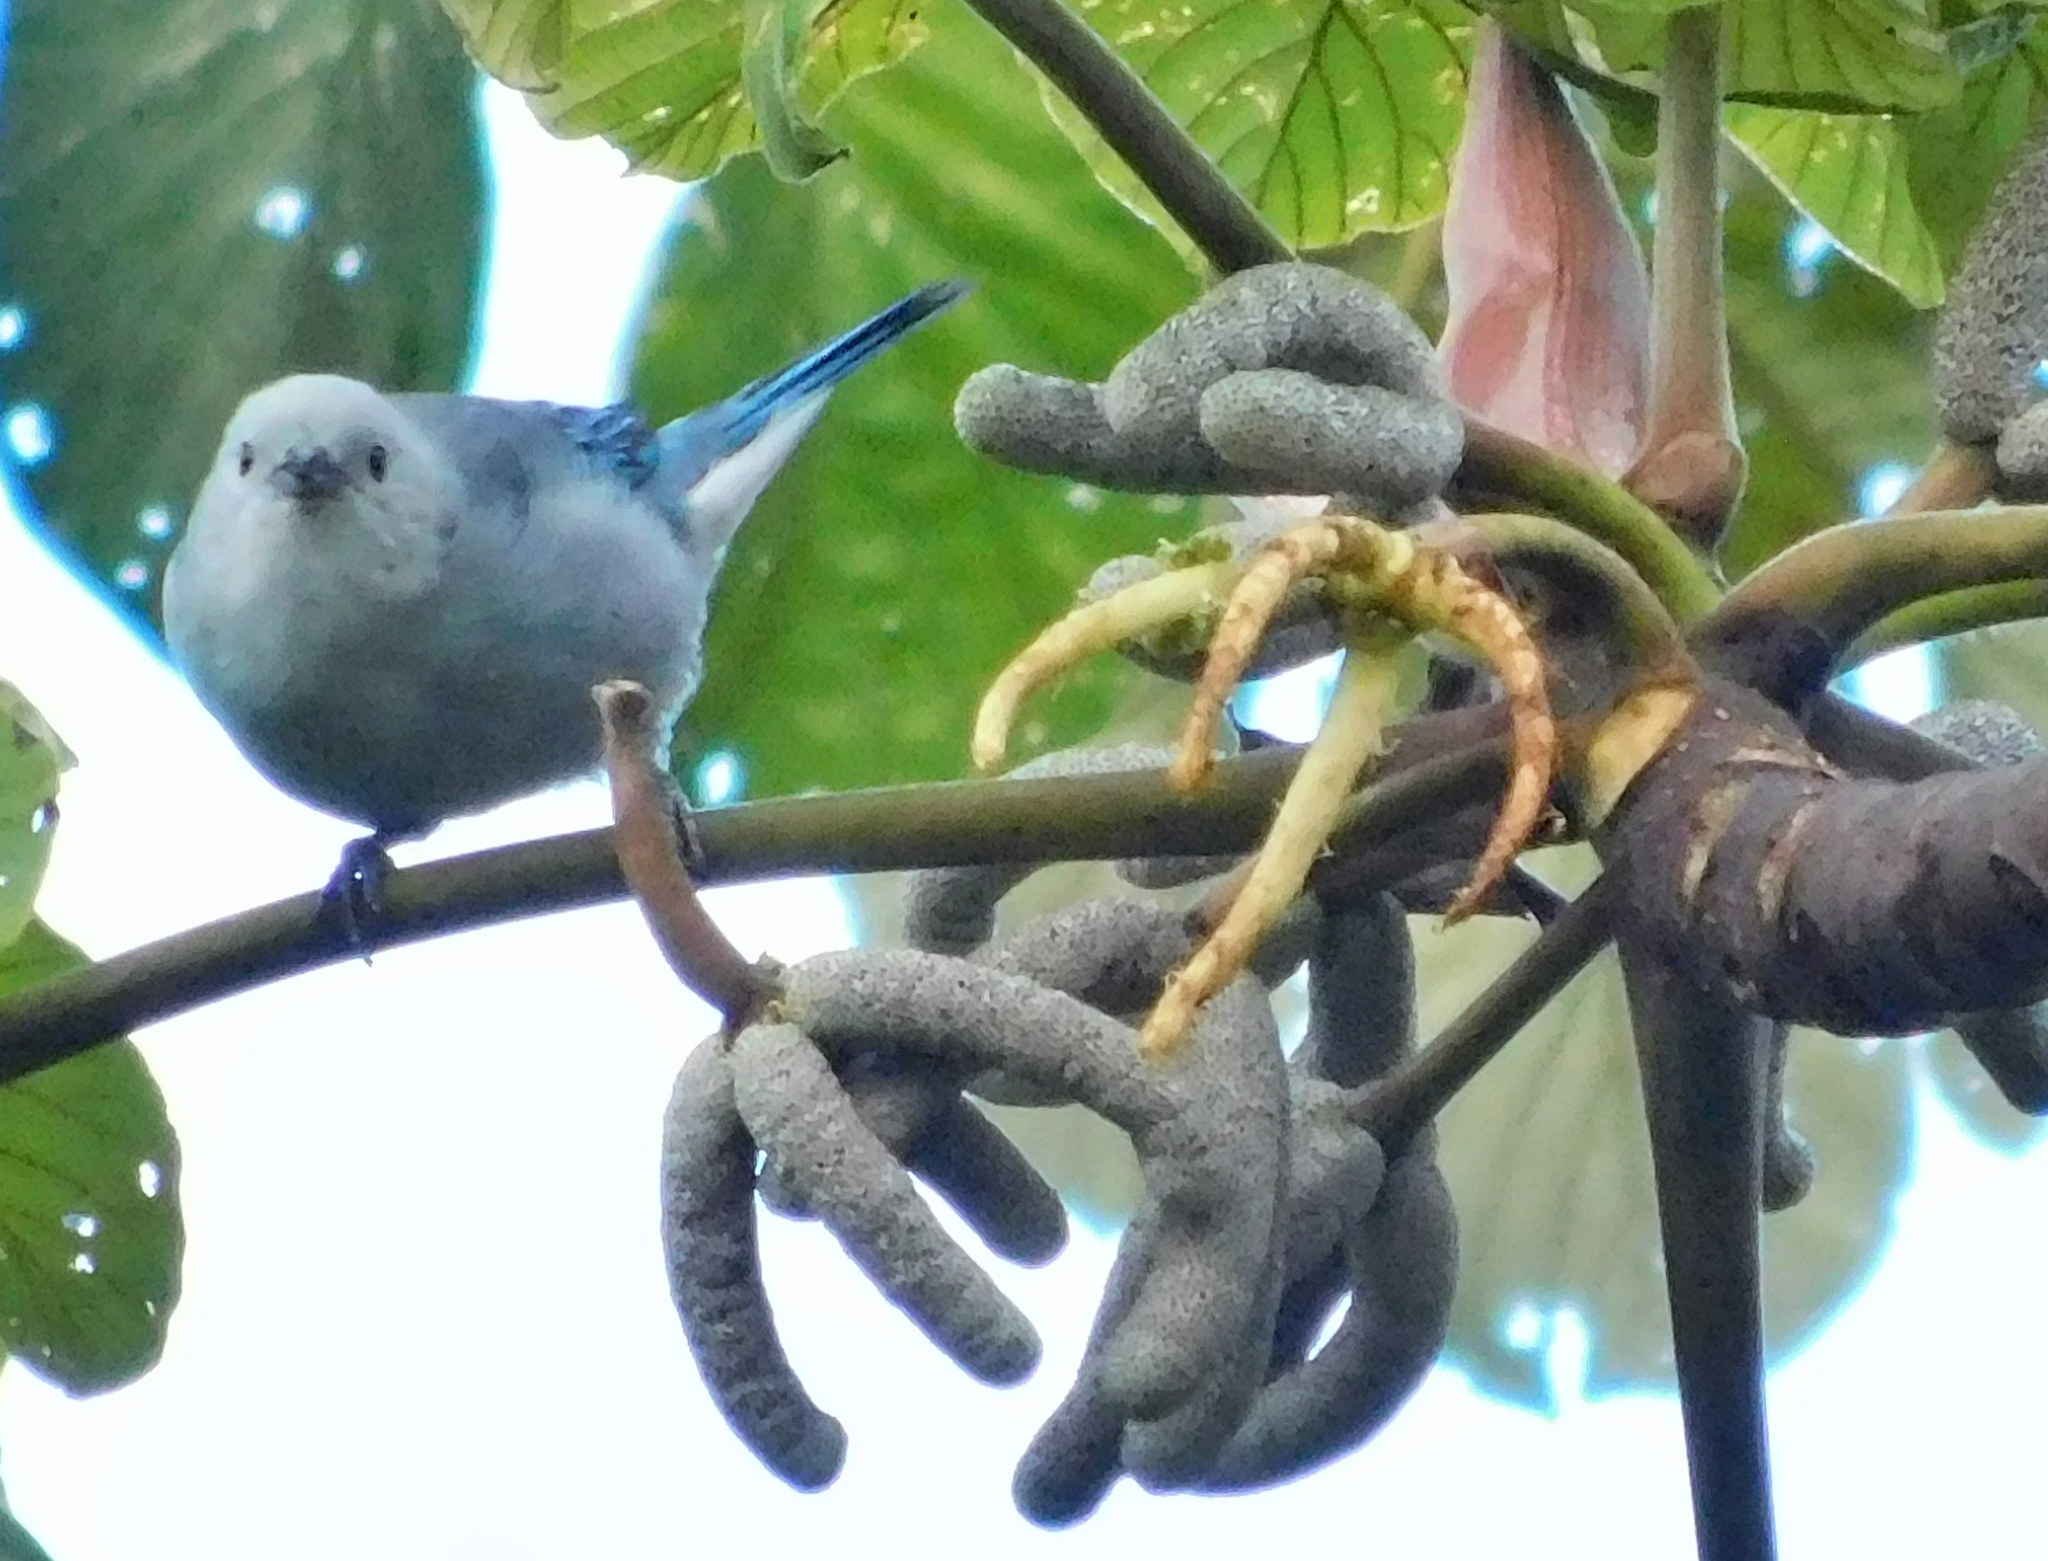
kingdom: Animalia
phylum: Chordata
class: Aves
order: Passeriformes
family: Thraupidae
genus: Thraupis
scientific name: Thraupis episcopus
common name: Blue-grey tanager
